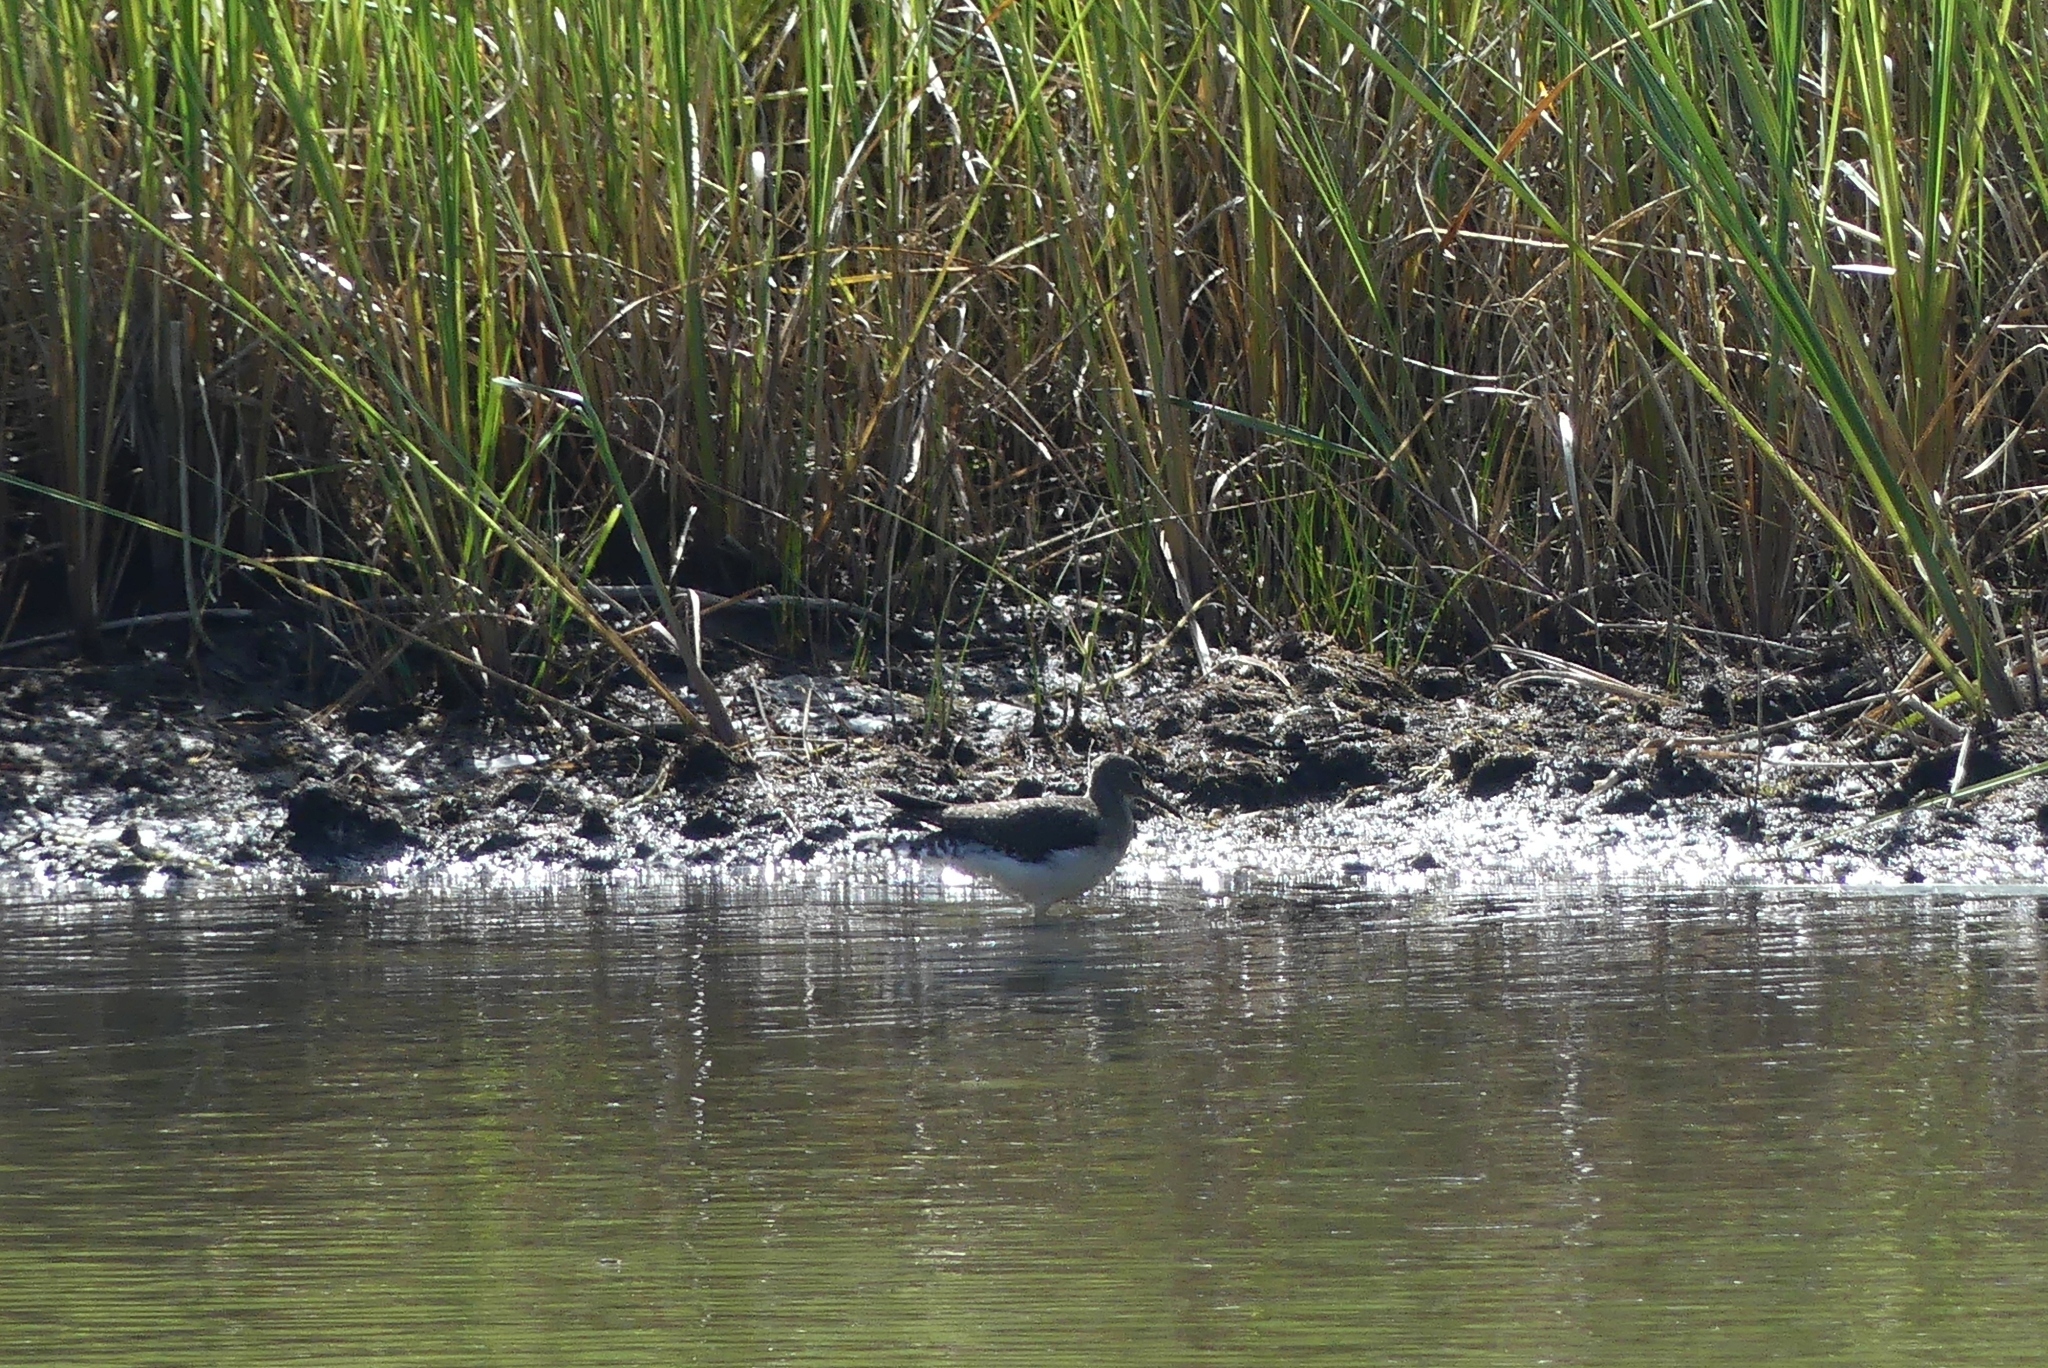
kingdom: Animalia
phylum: Chordata
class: Aves
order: Charadriiformes
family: Scolopacidae
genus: Tringa
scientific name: Tringa solitaria
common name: Solitary sandpiper
